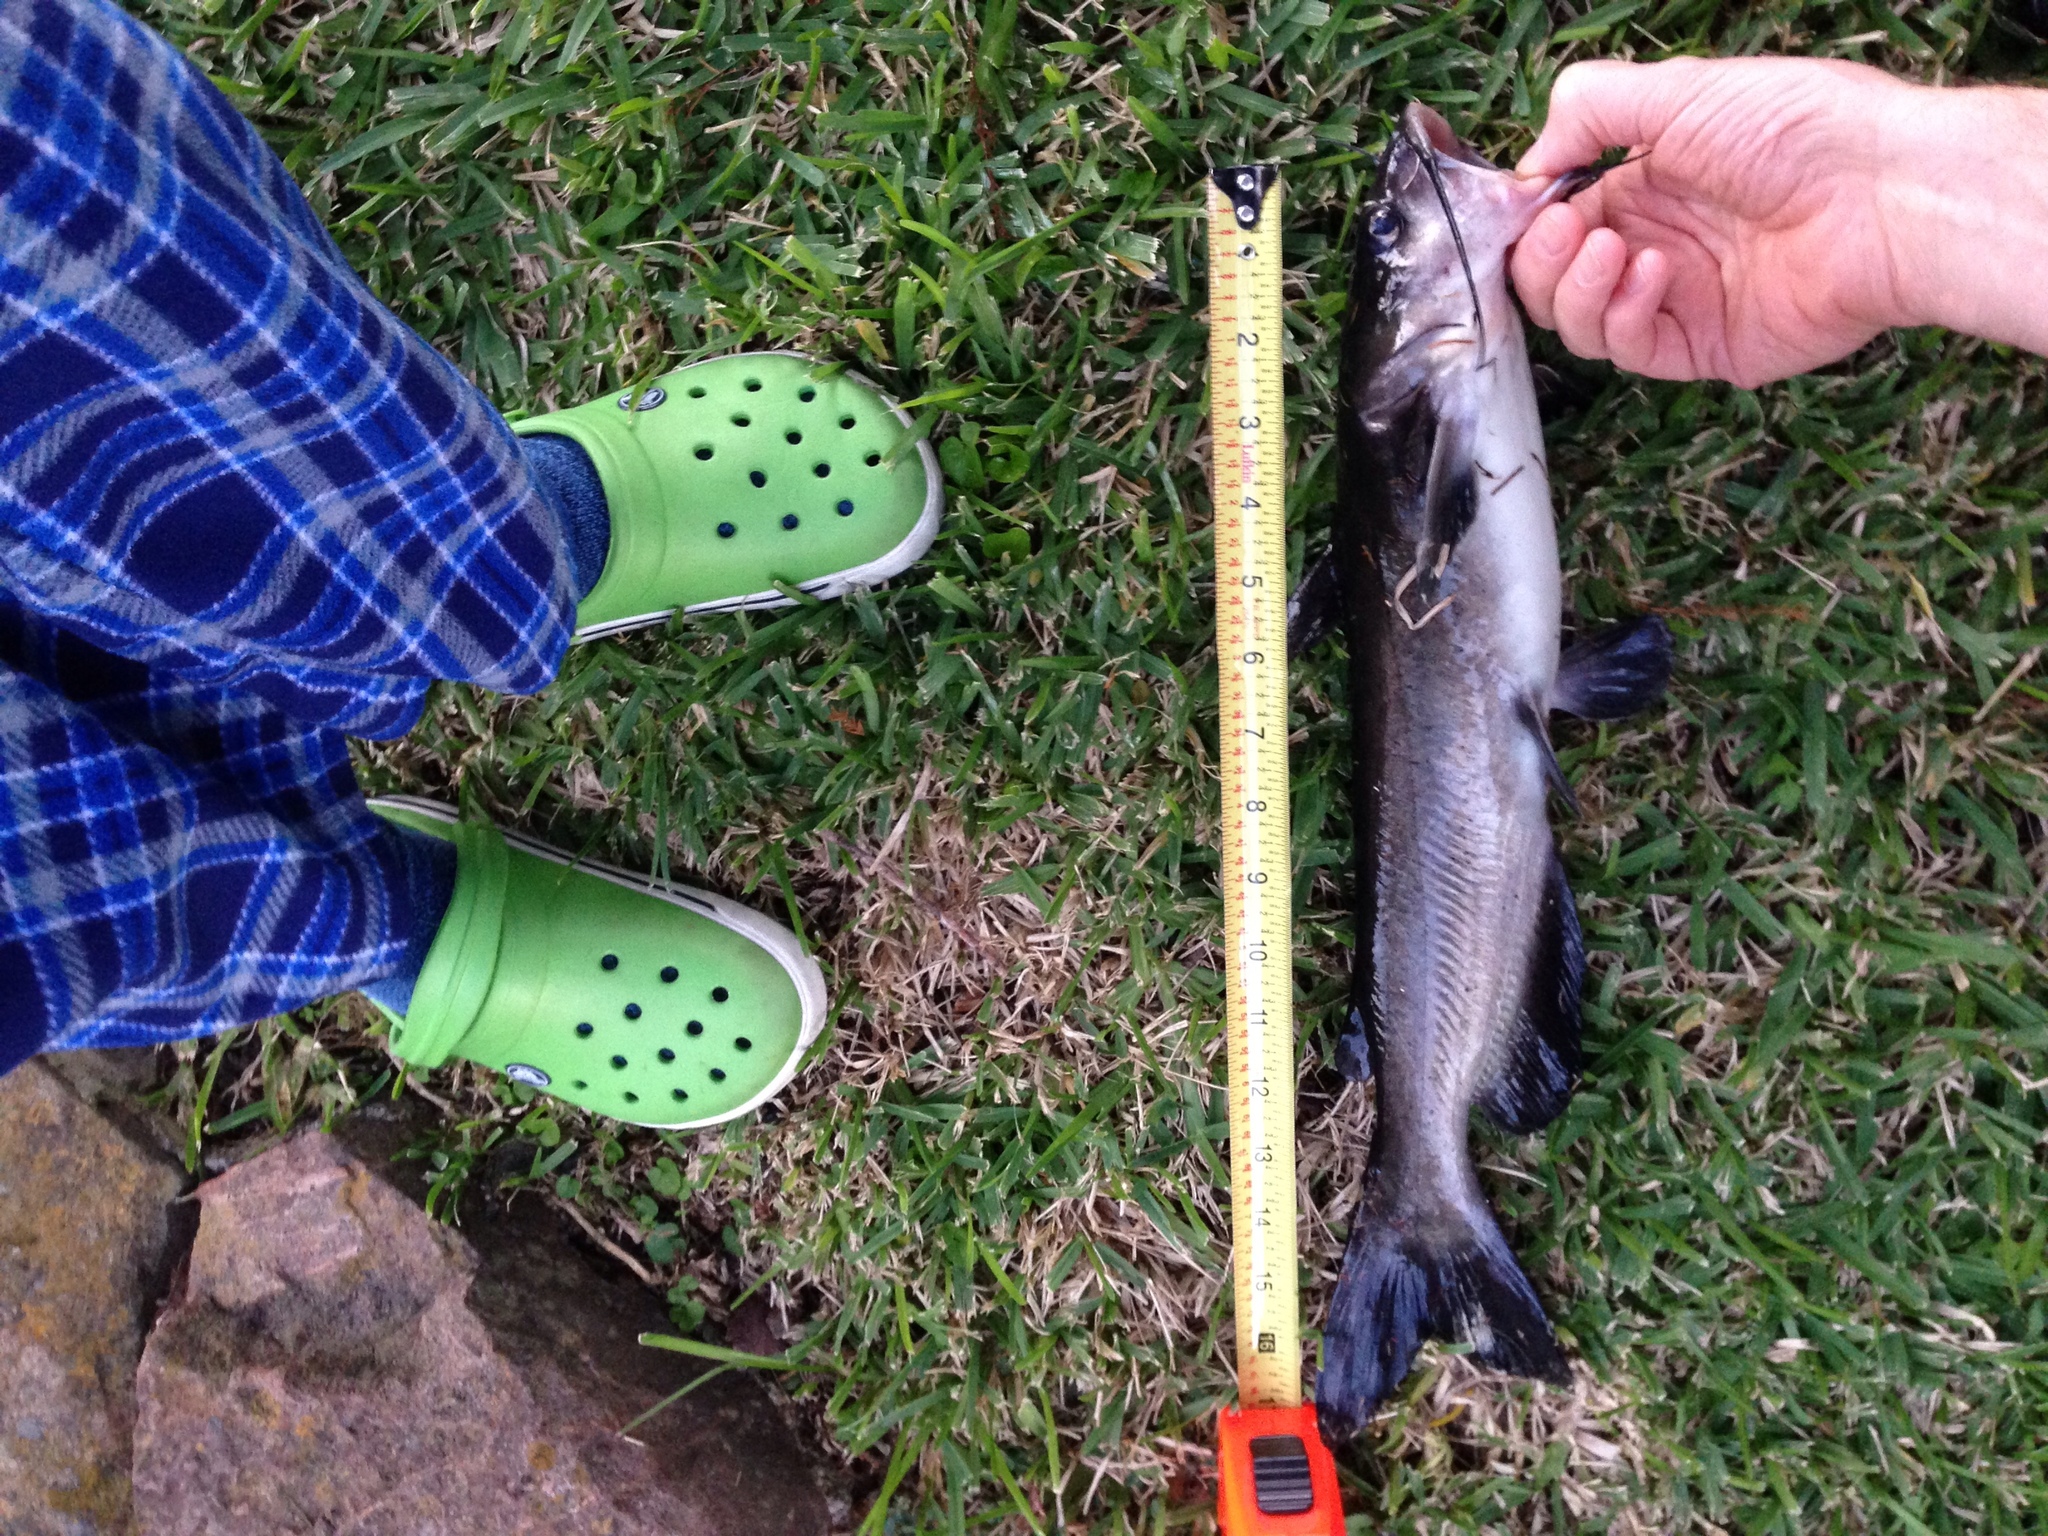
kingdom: Animalia
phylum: Chordata
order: Siluriformes
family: Ictaluridae
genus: Ictalurus
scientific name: Ictalurus punctatus
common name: Channel catfish
